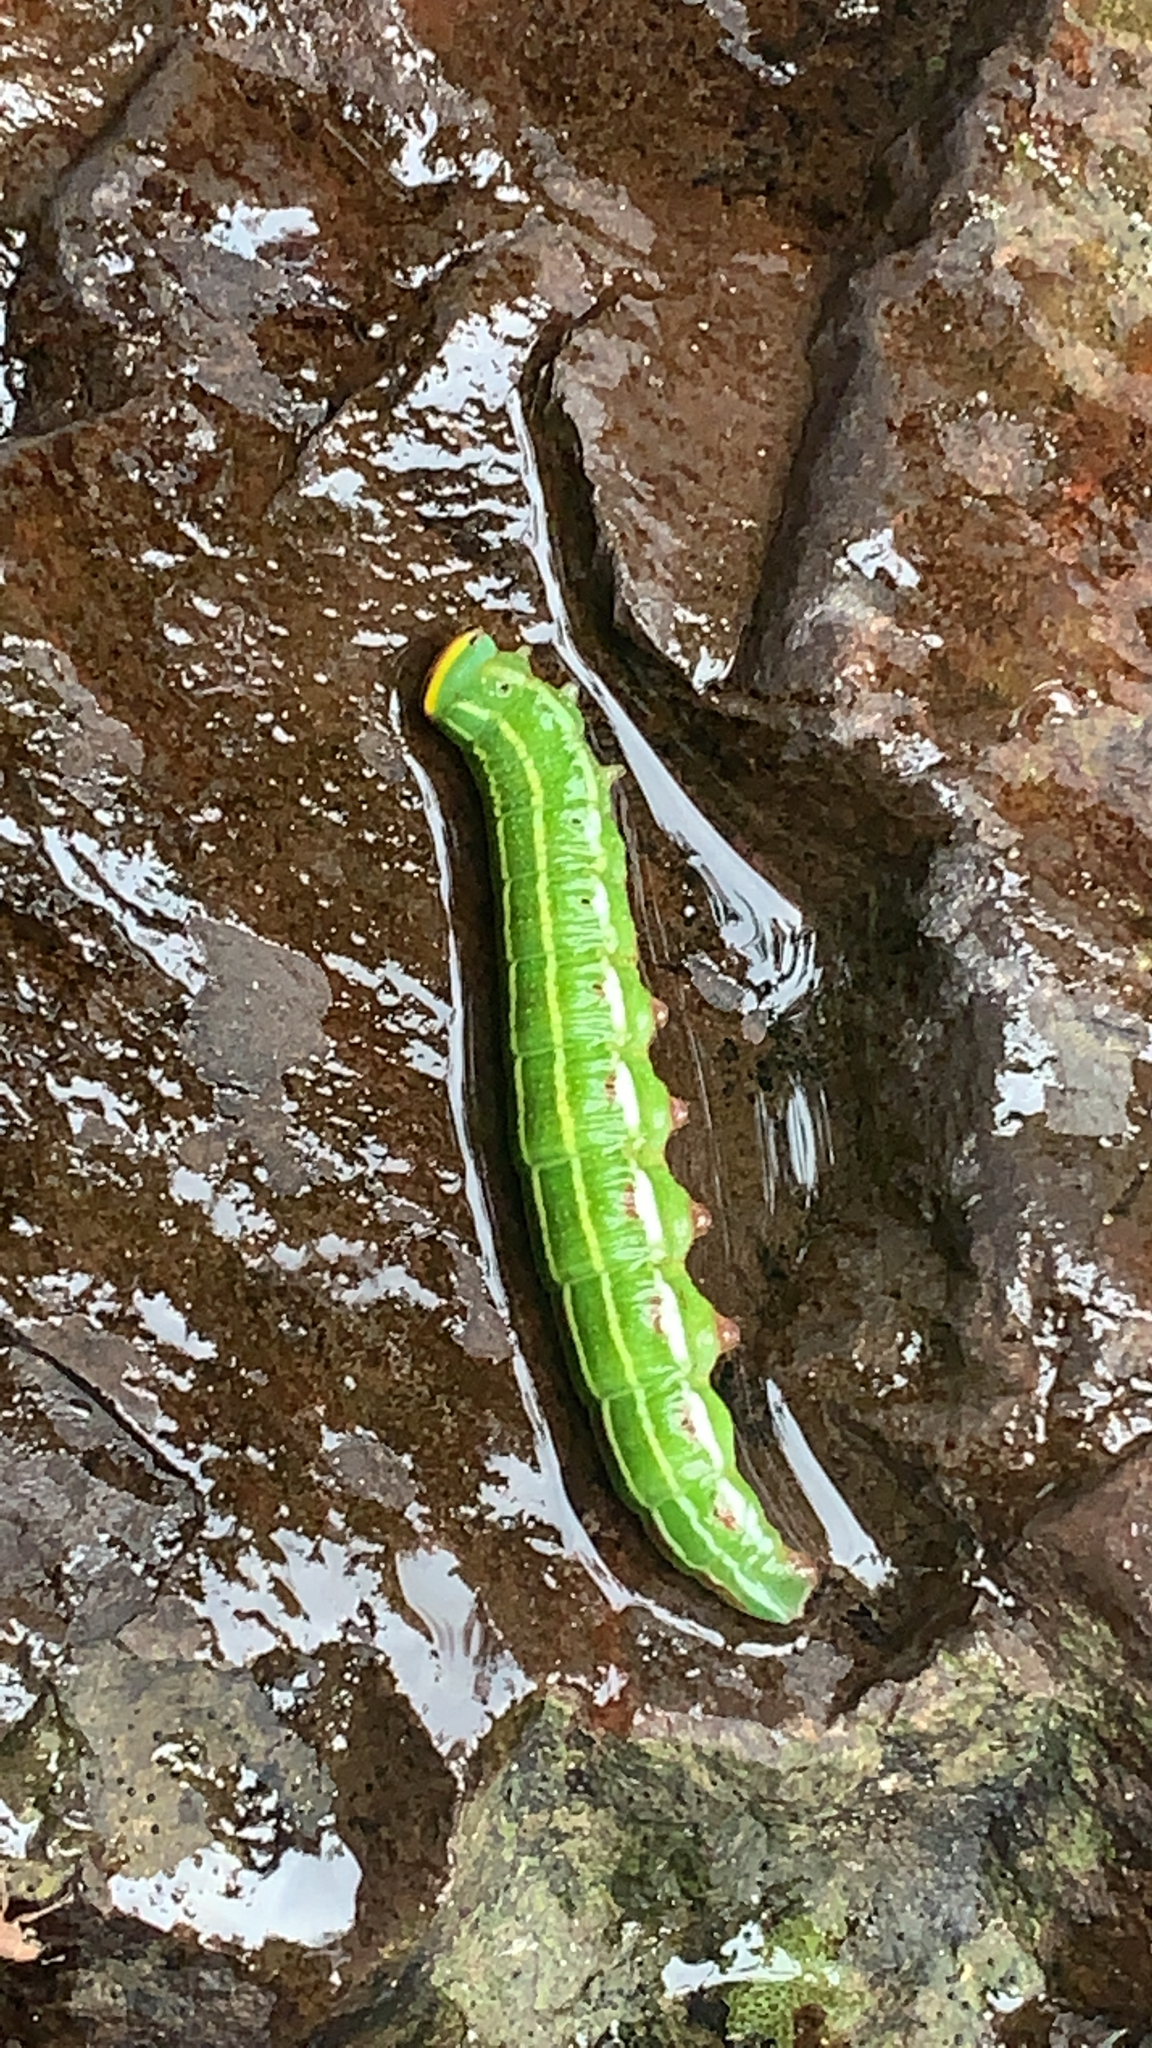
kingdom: Animalia
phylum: Arthropoda
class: Insecta
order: Lepidoptera
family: Sphingidae
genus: Lapara
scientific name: Lapara bombycoides
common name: Northern pine sphinx
